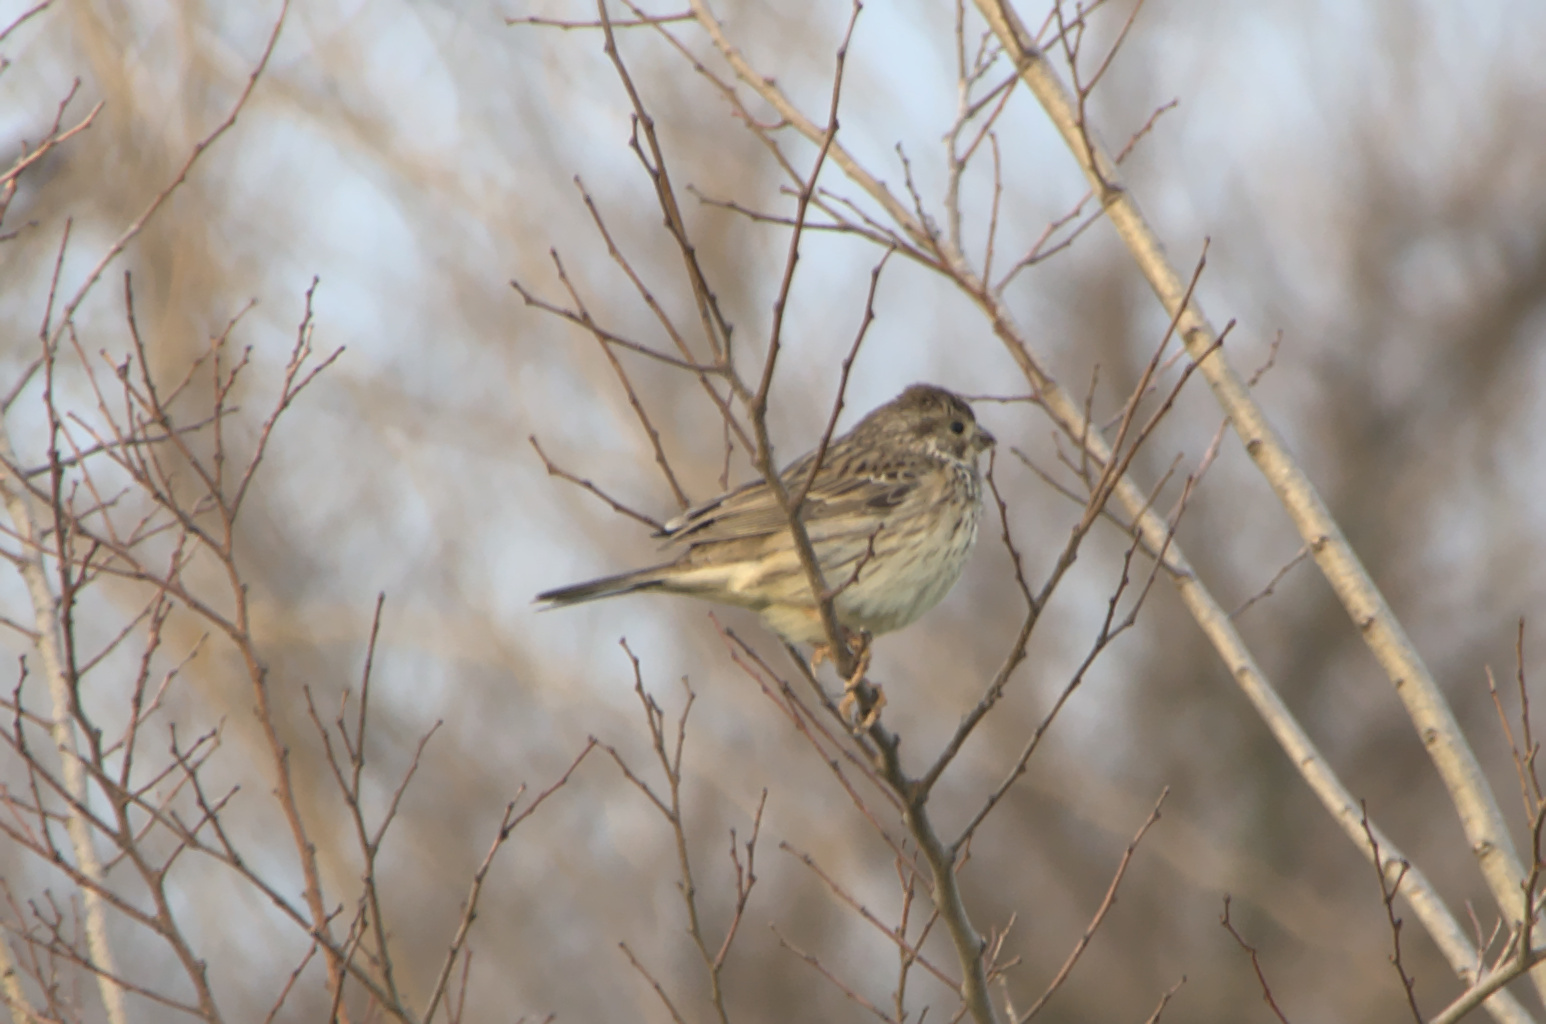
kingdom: Animalia
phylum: Chordata
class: Aves
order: Passeriformes
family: Emberizidae
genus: Emberiza
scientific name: Emberiza calandra
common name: Corn bunting
